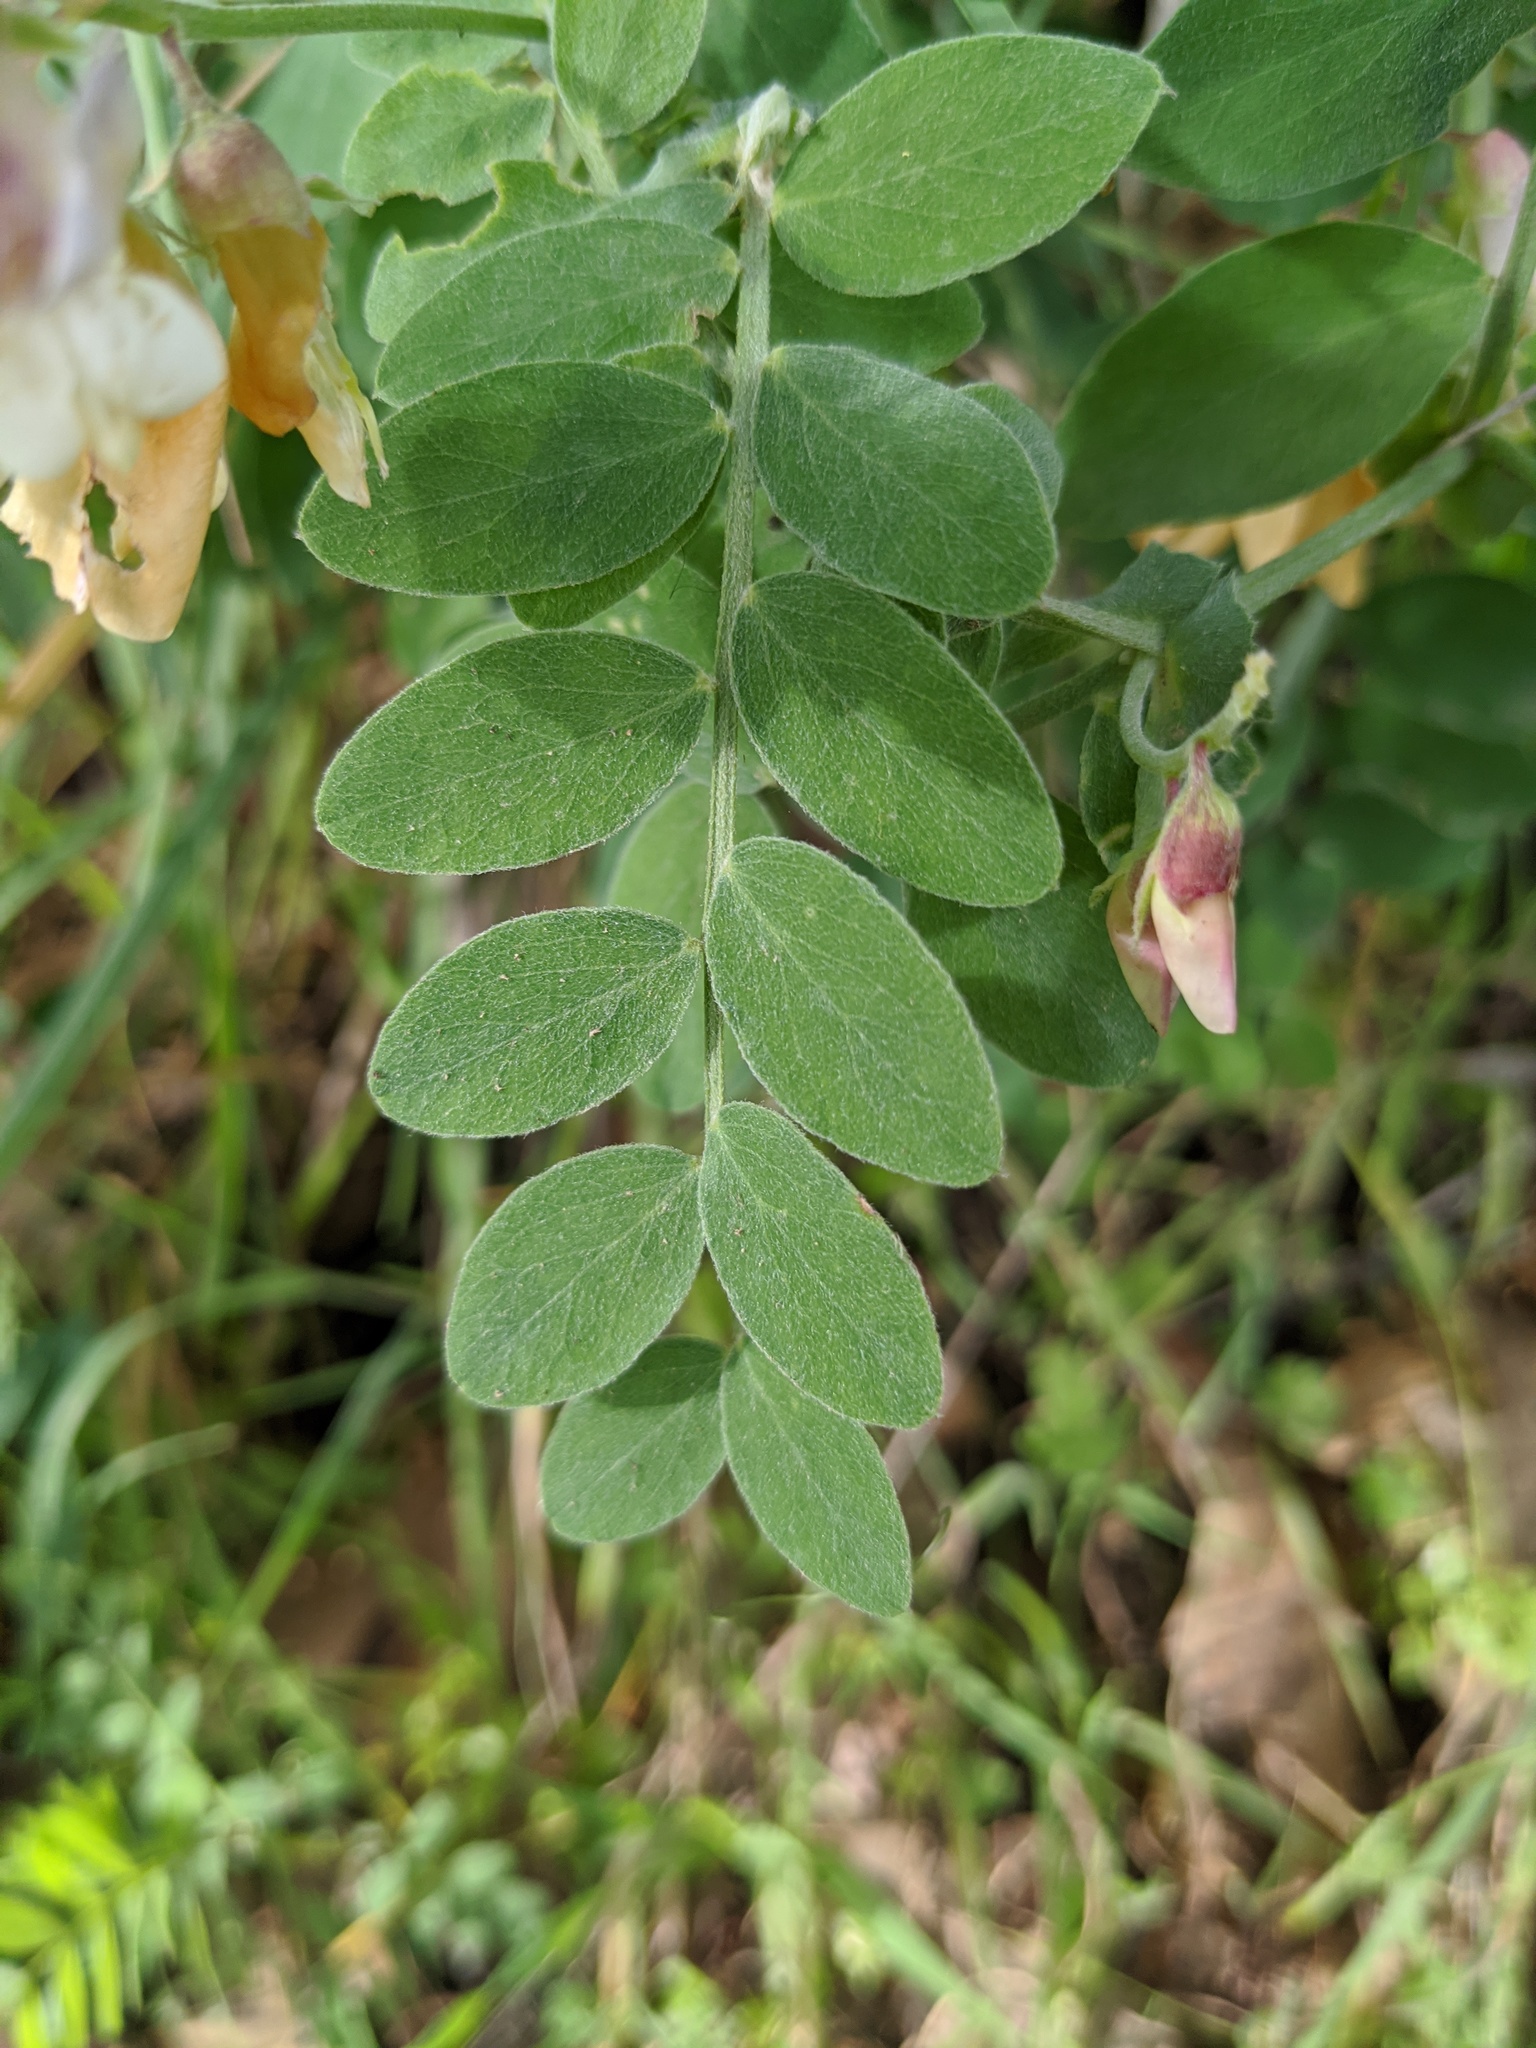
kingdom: Plantae
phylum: Tracheophyta
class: Magnoliopsida
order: Fabales
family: Fabaceae
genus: Lathyrus
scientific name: Lathyrus vestitus
